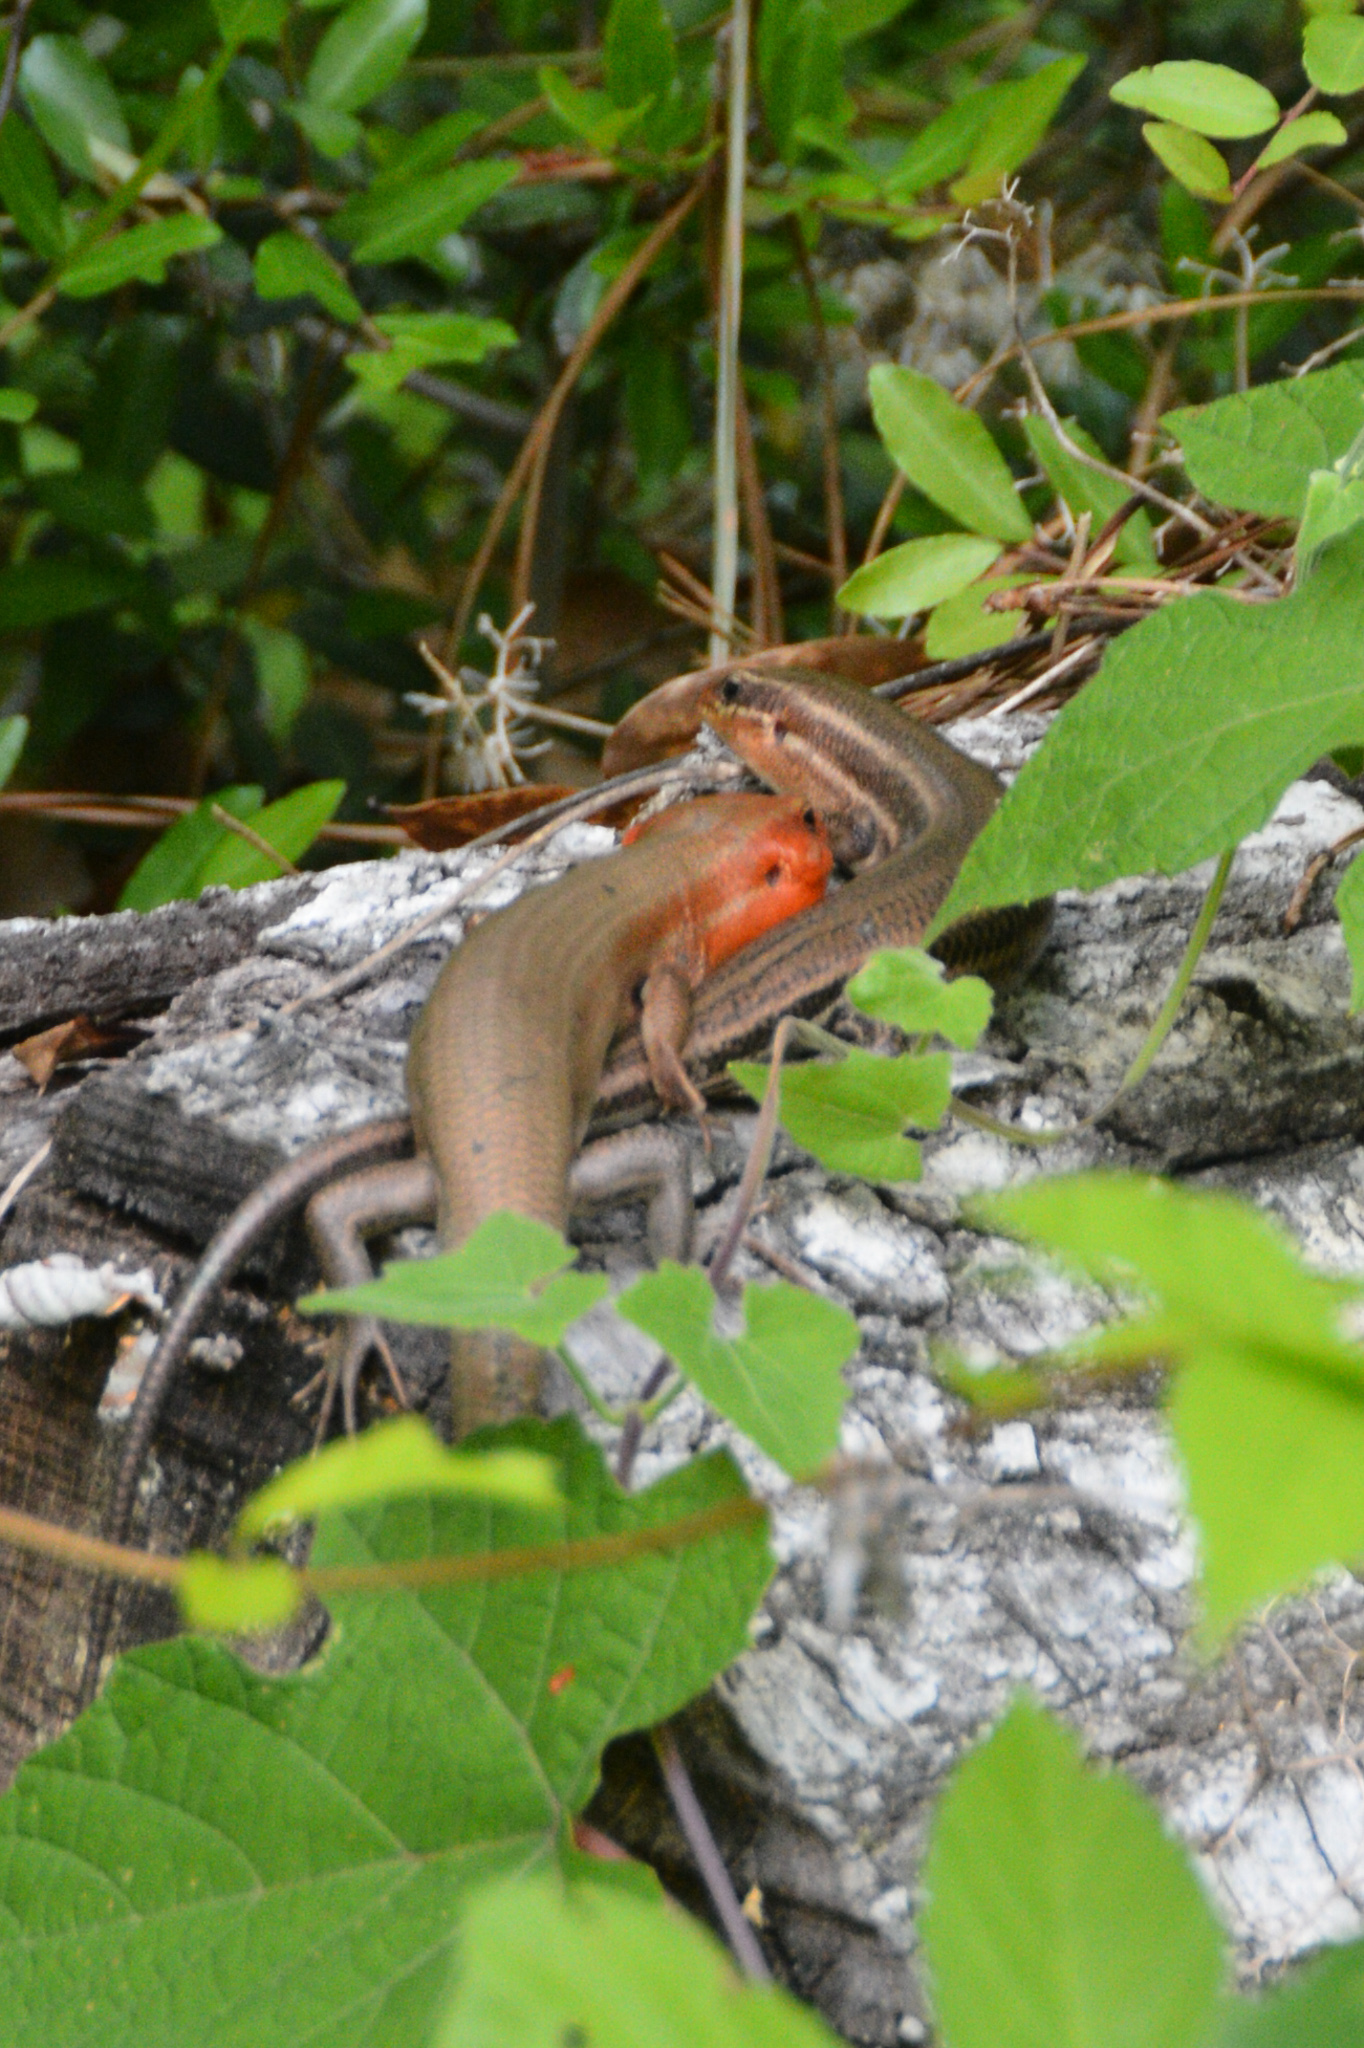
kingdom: Animalia
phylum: Chordata
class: Squamata
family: Scincidae
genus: Plestiodon
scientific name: Plestiodon laticeps
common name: Broadhead skink
